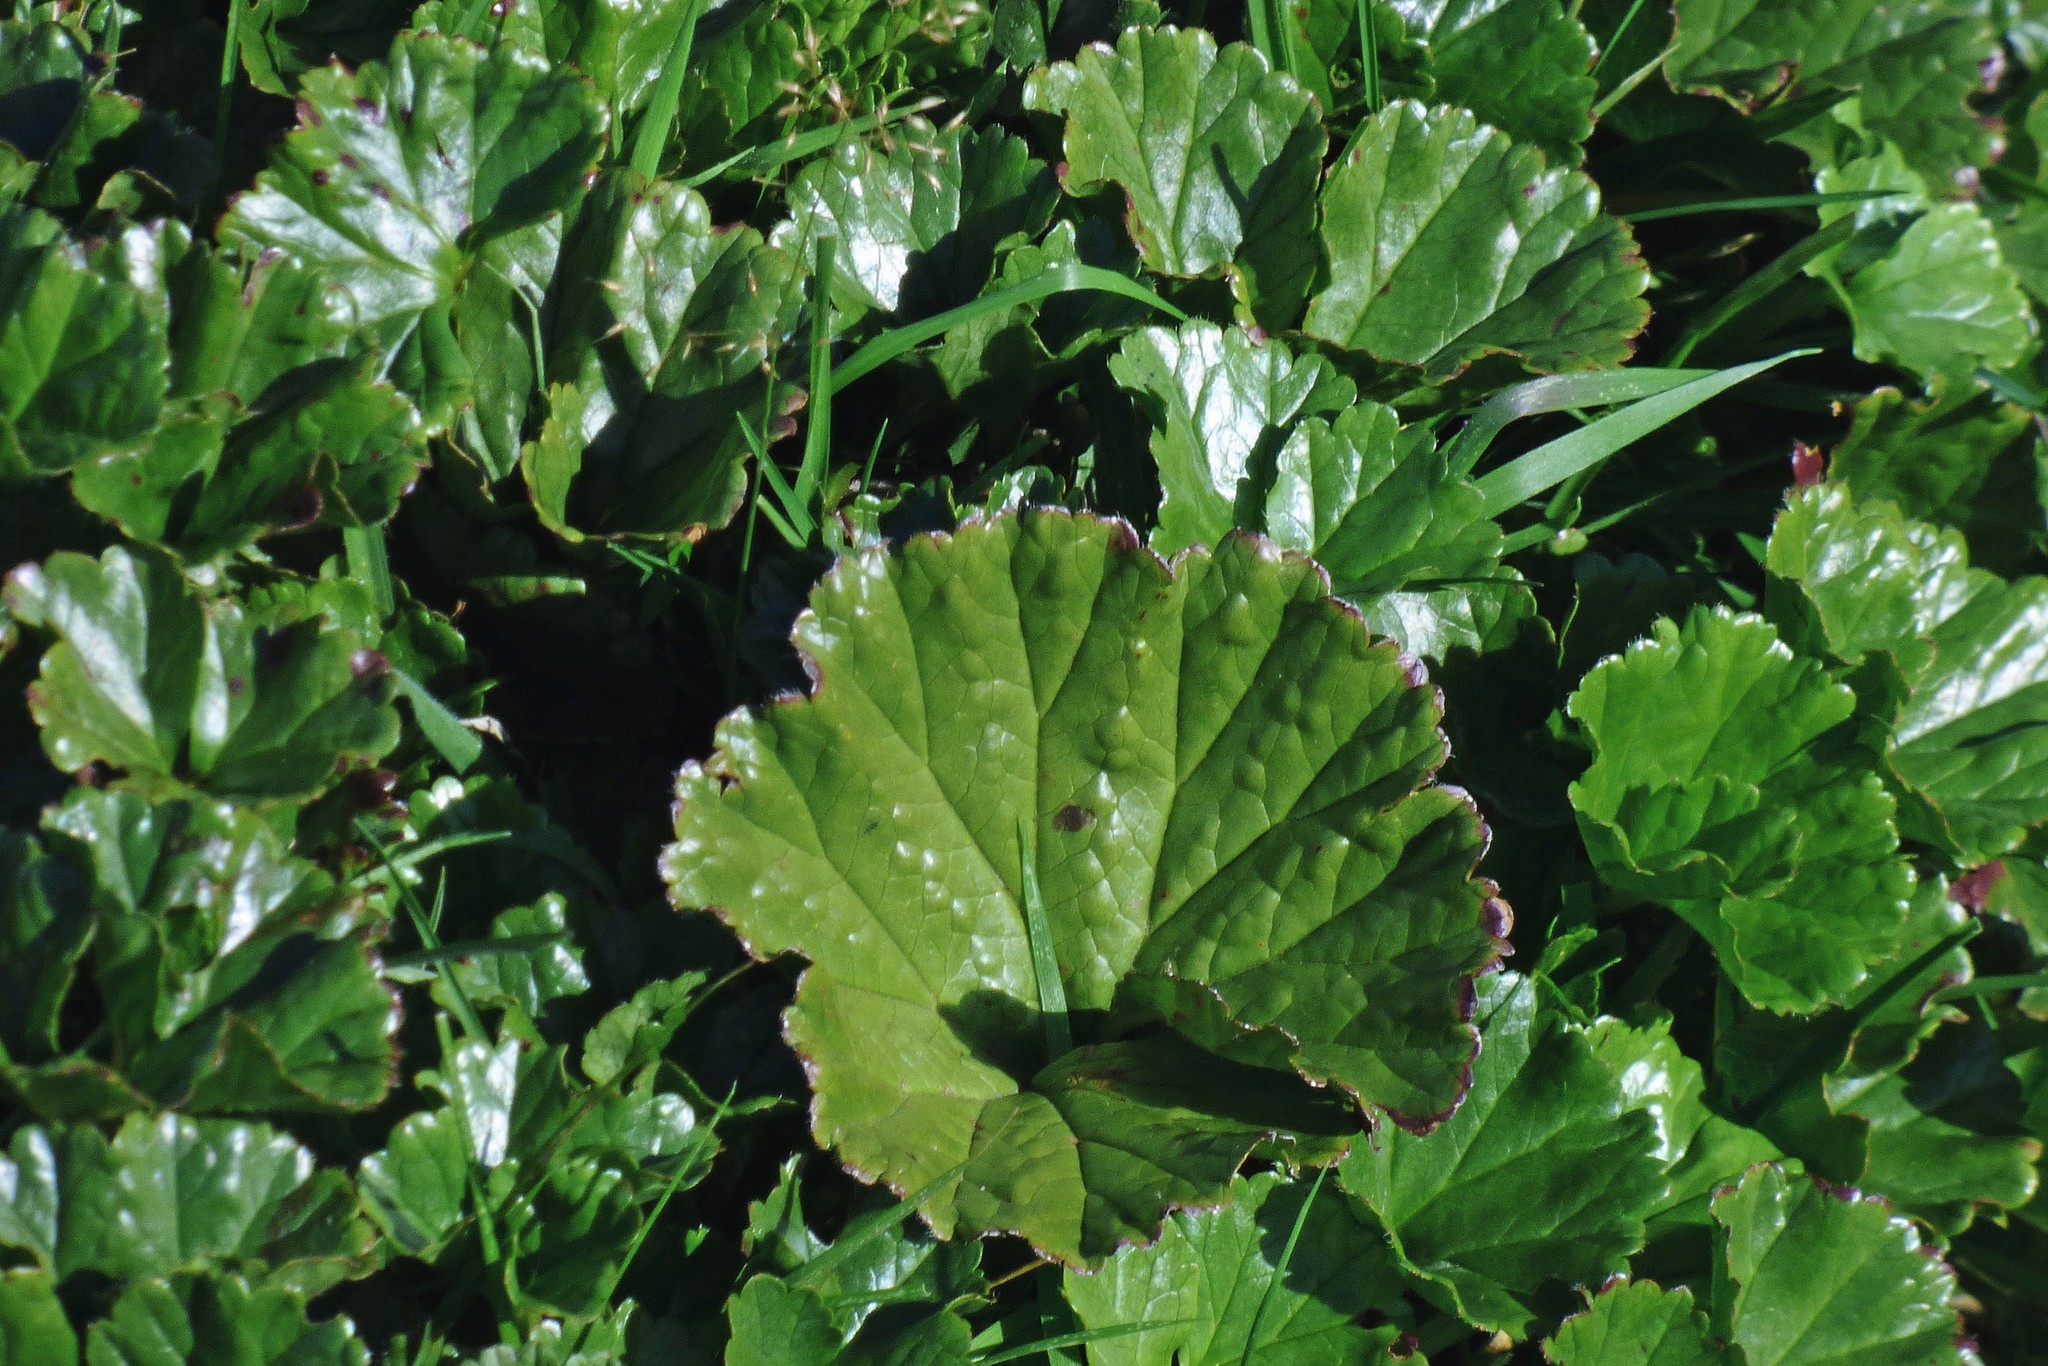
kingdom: Plantae
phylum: Tracheophyta
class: Magnoliopsida
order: Gunnerales
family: Gunneraceae
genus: Gunnera
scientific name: Gunnera magellanica
